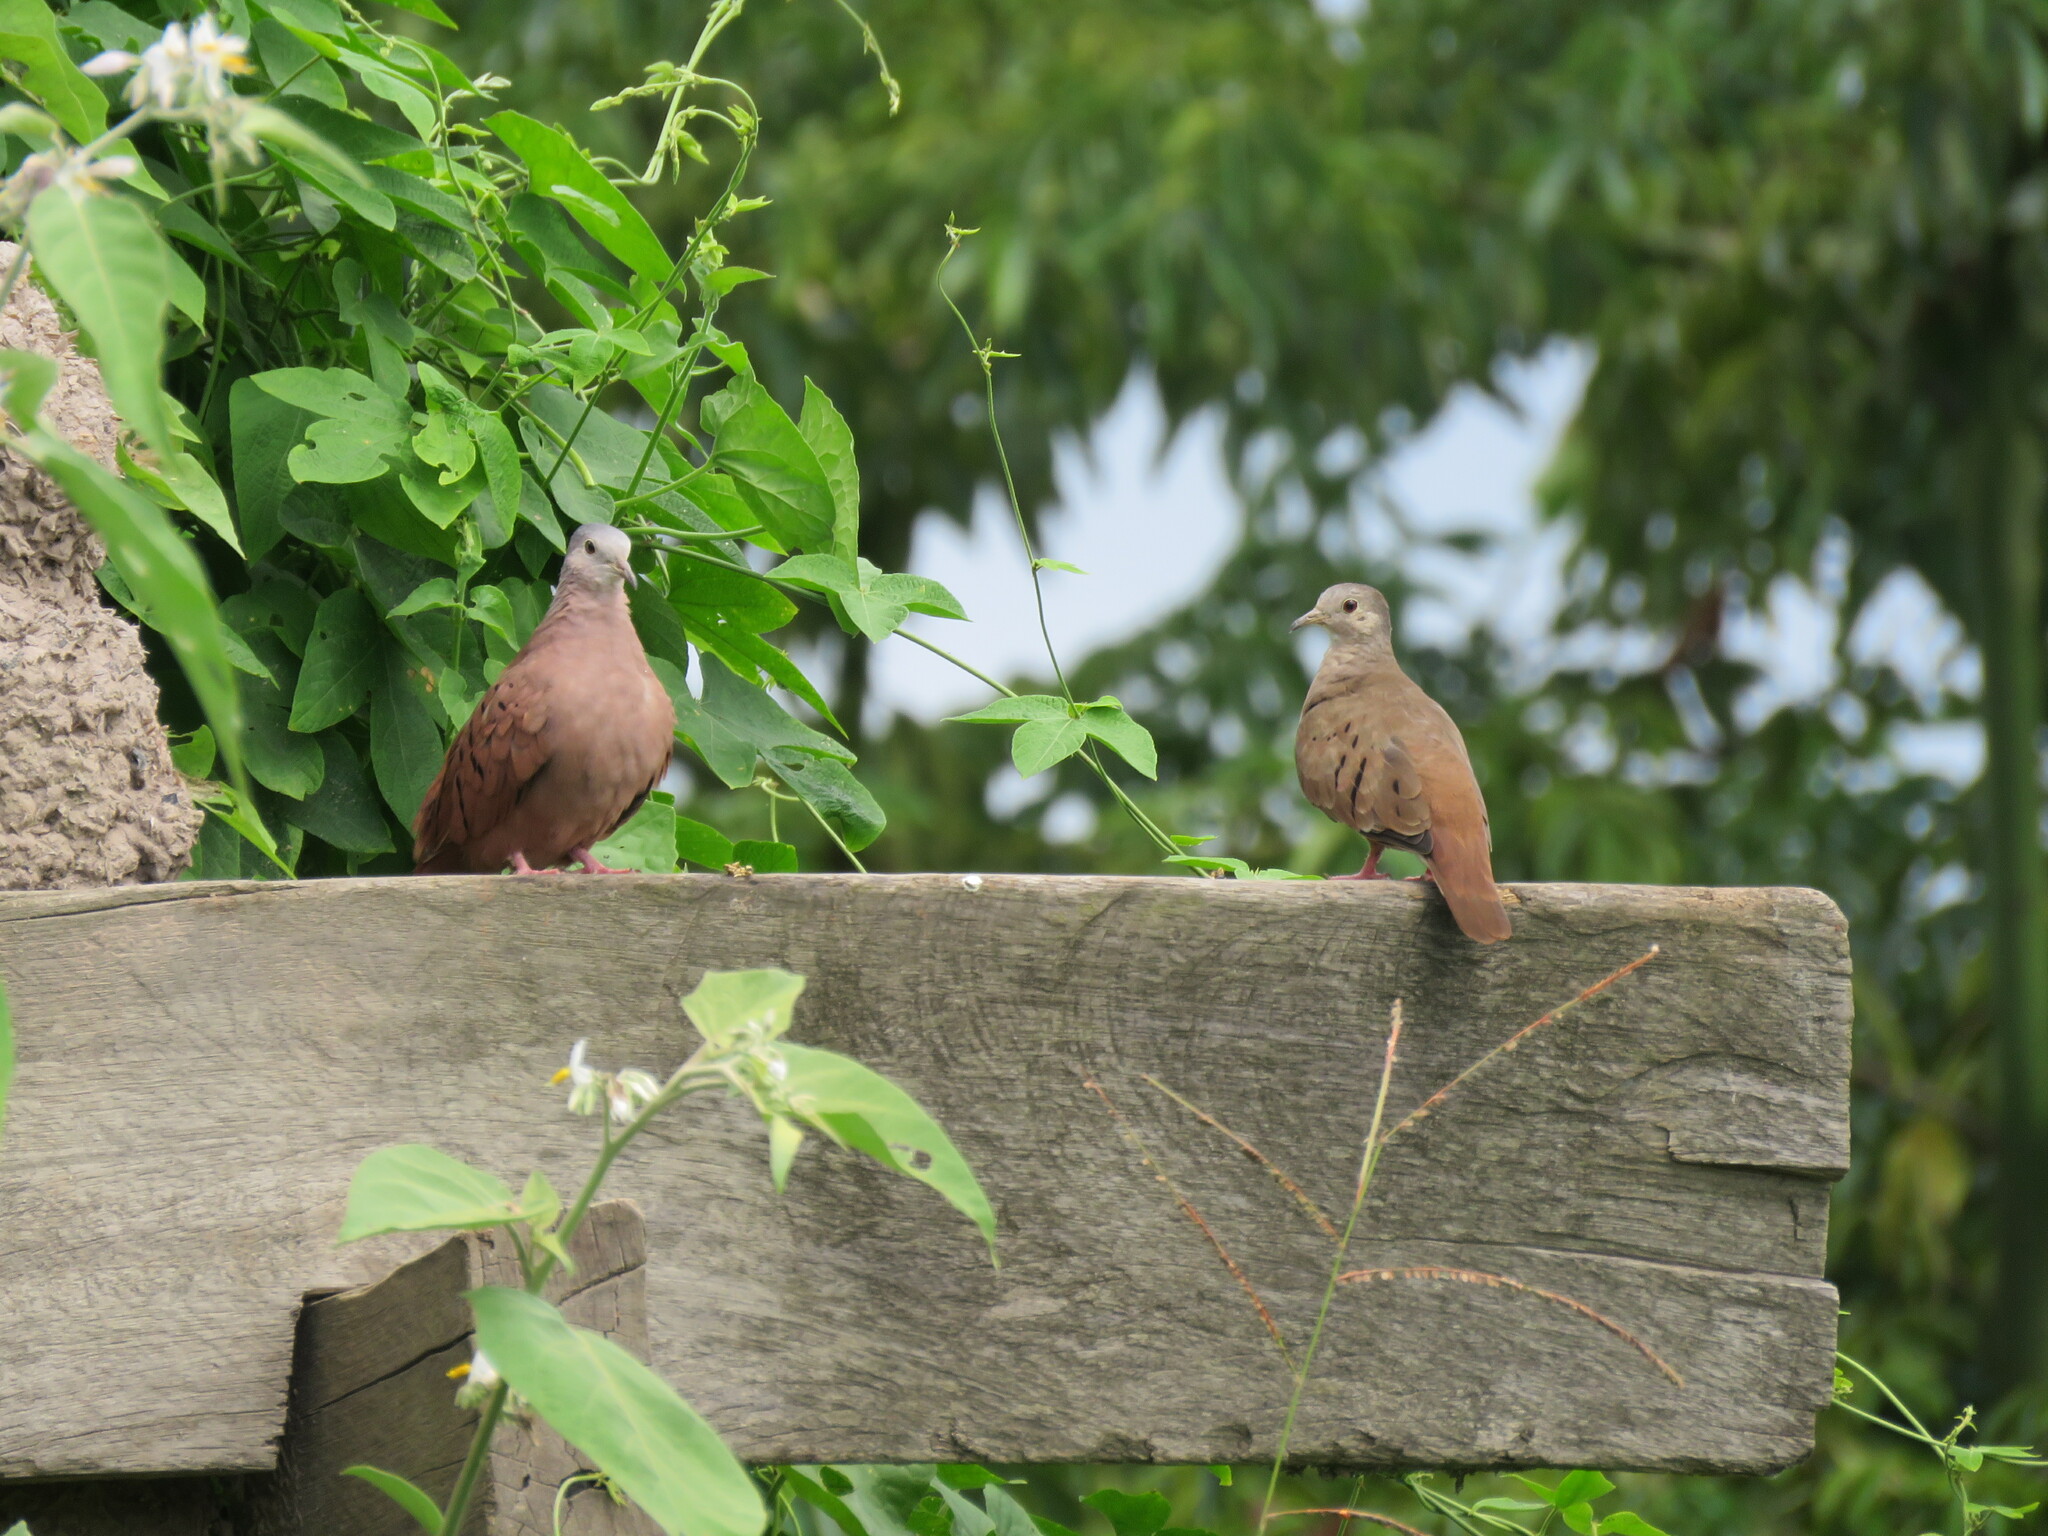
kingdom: Animalia
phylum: Chordata
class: Aves
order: Columbiformes
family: Columbidae
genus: Columbina
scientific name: Columbina talpacoti
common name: Ruddy ground dove
